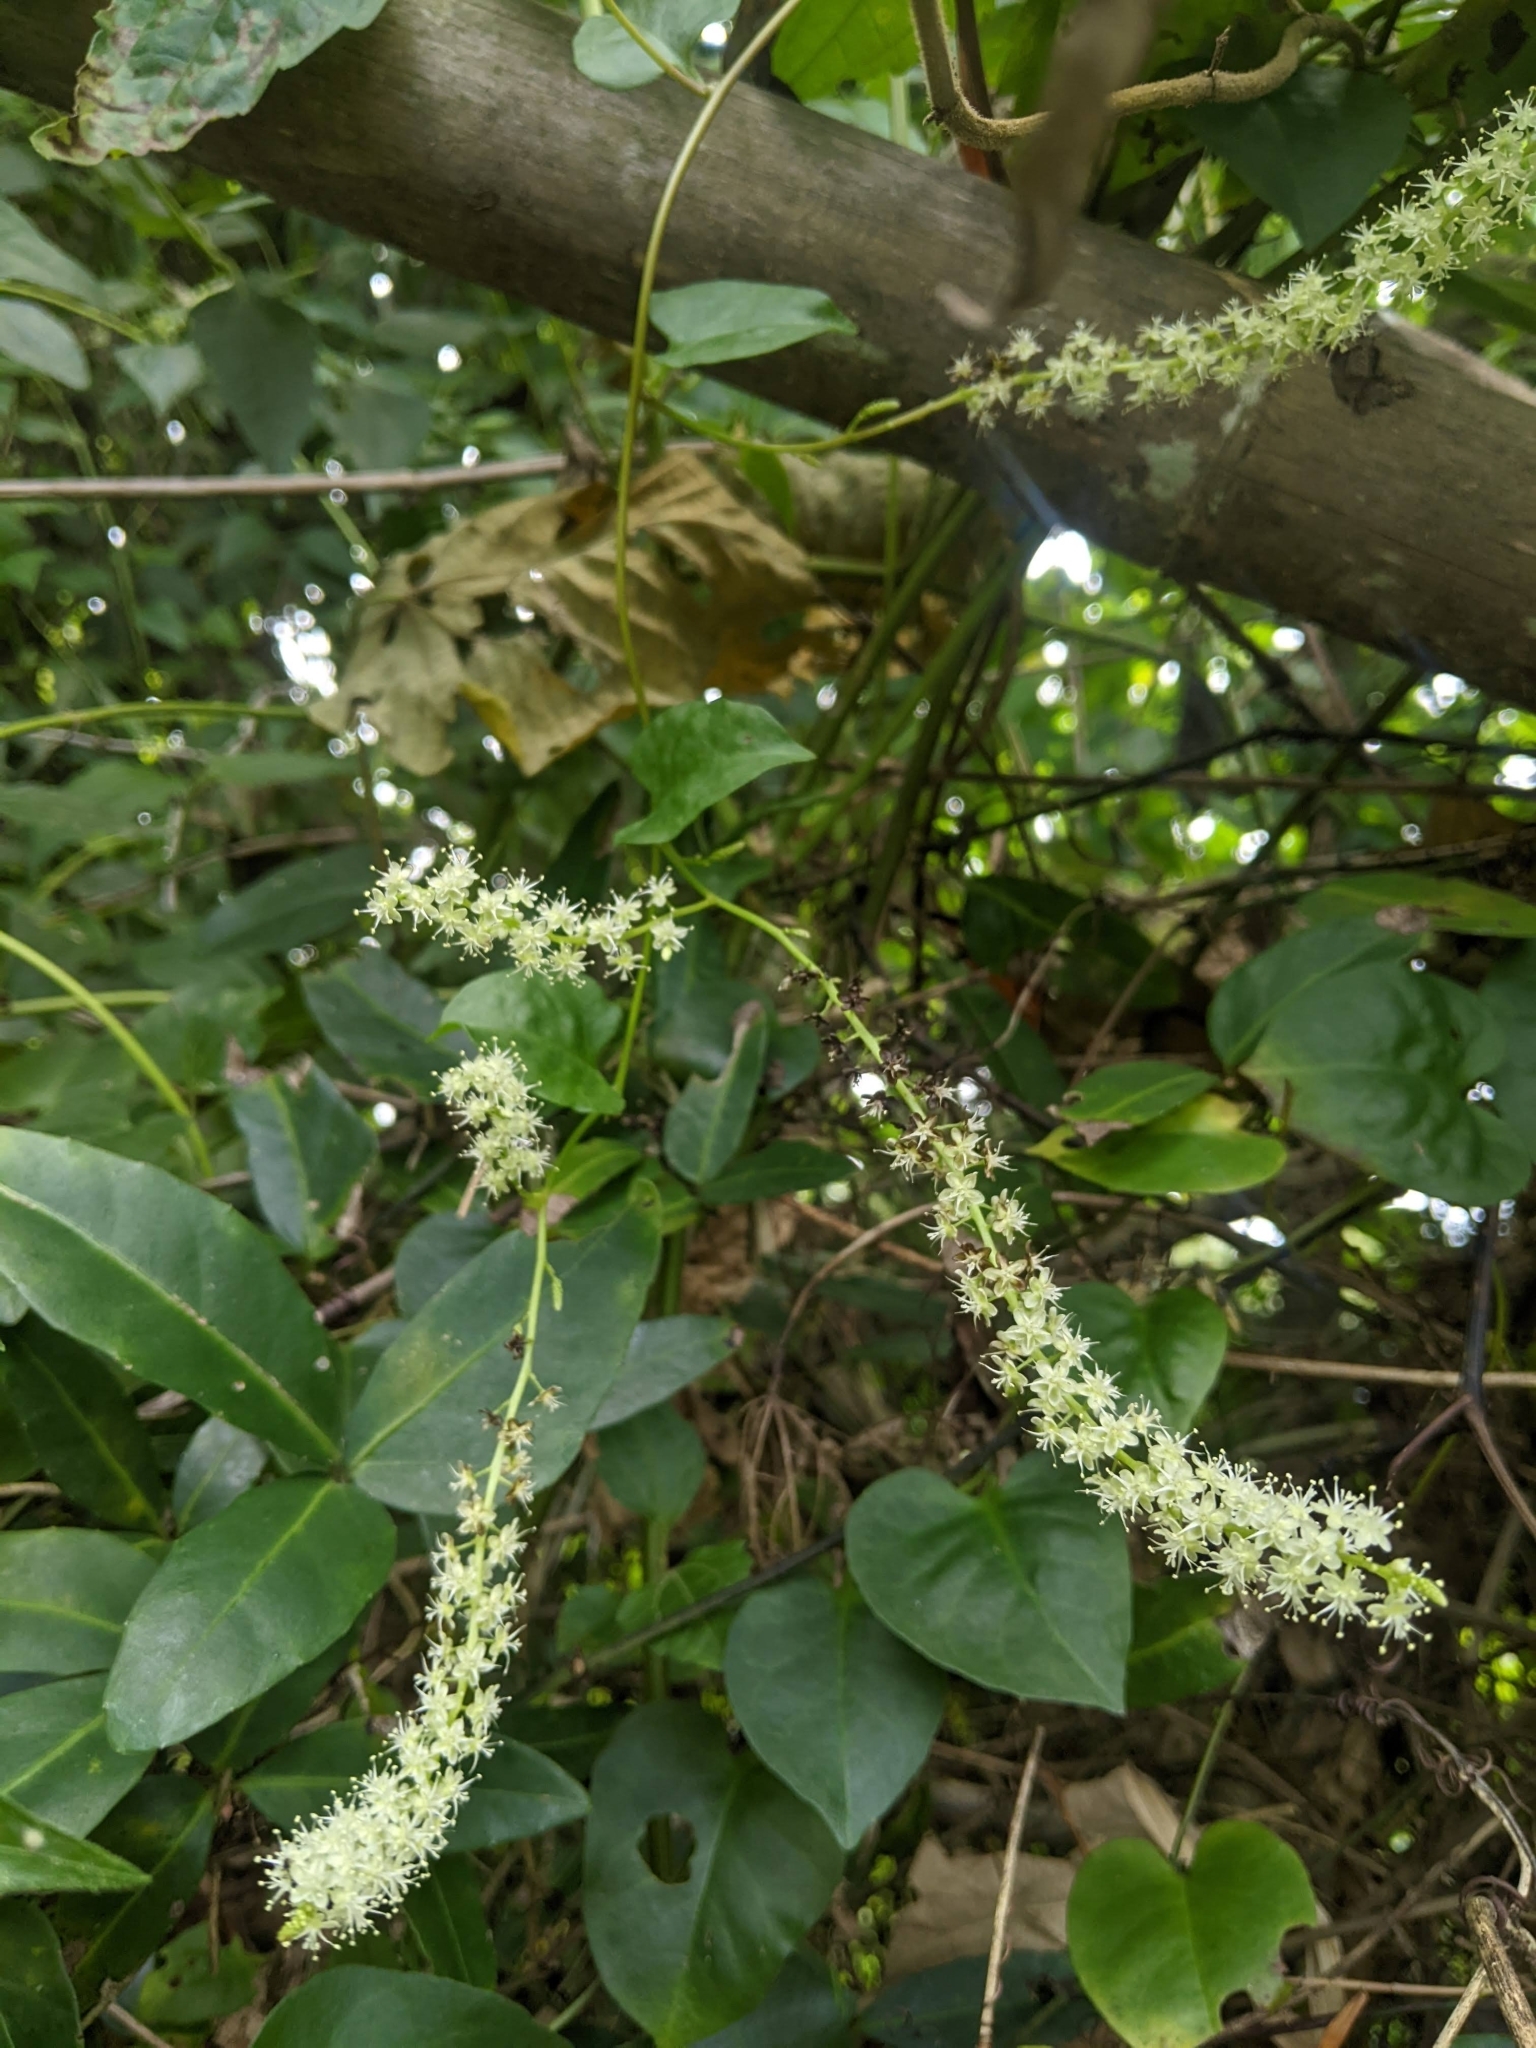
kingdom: Plantae
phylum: Tracheophyta
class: Magnoliopsida
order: Caryophyllales
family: Basellaceae
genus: Anredera
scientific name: Anredera cordifolia
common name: Heartleaf madeiravine
